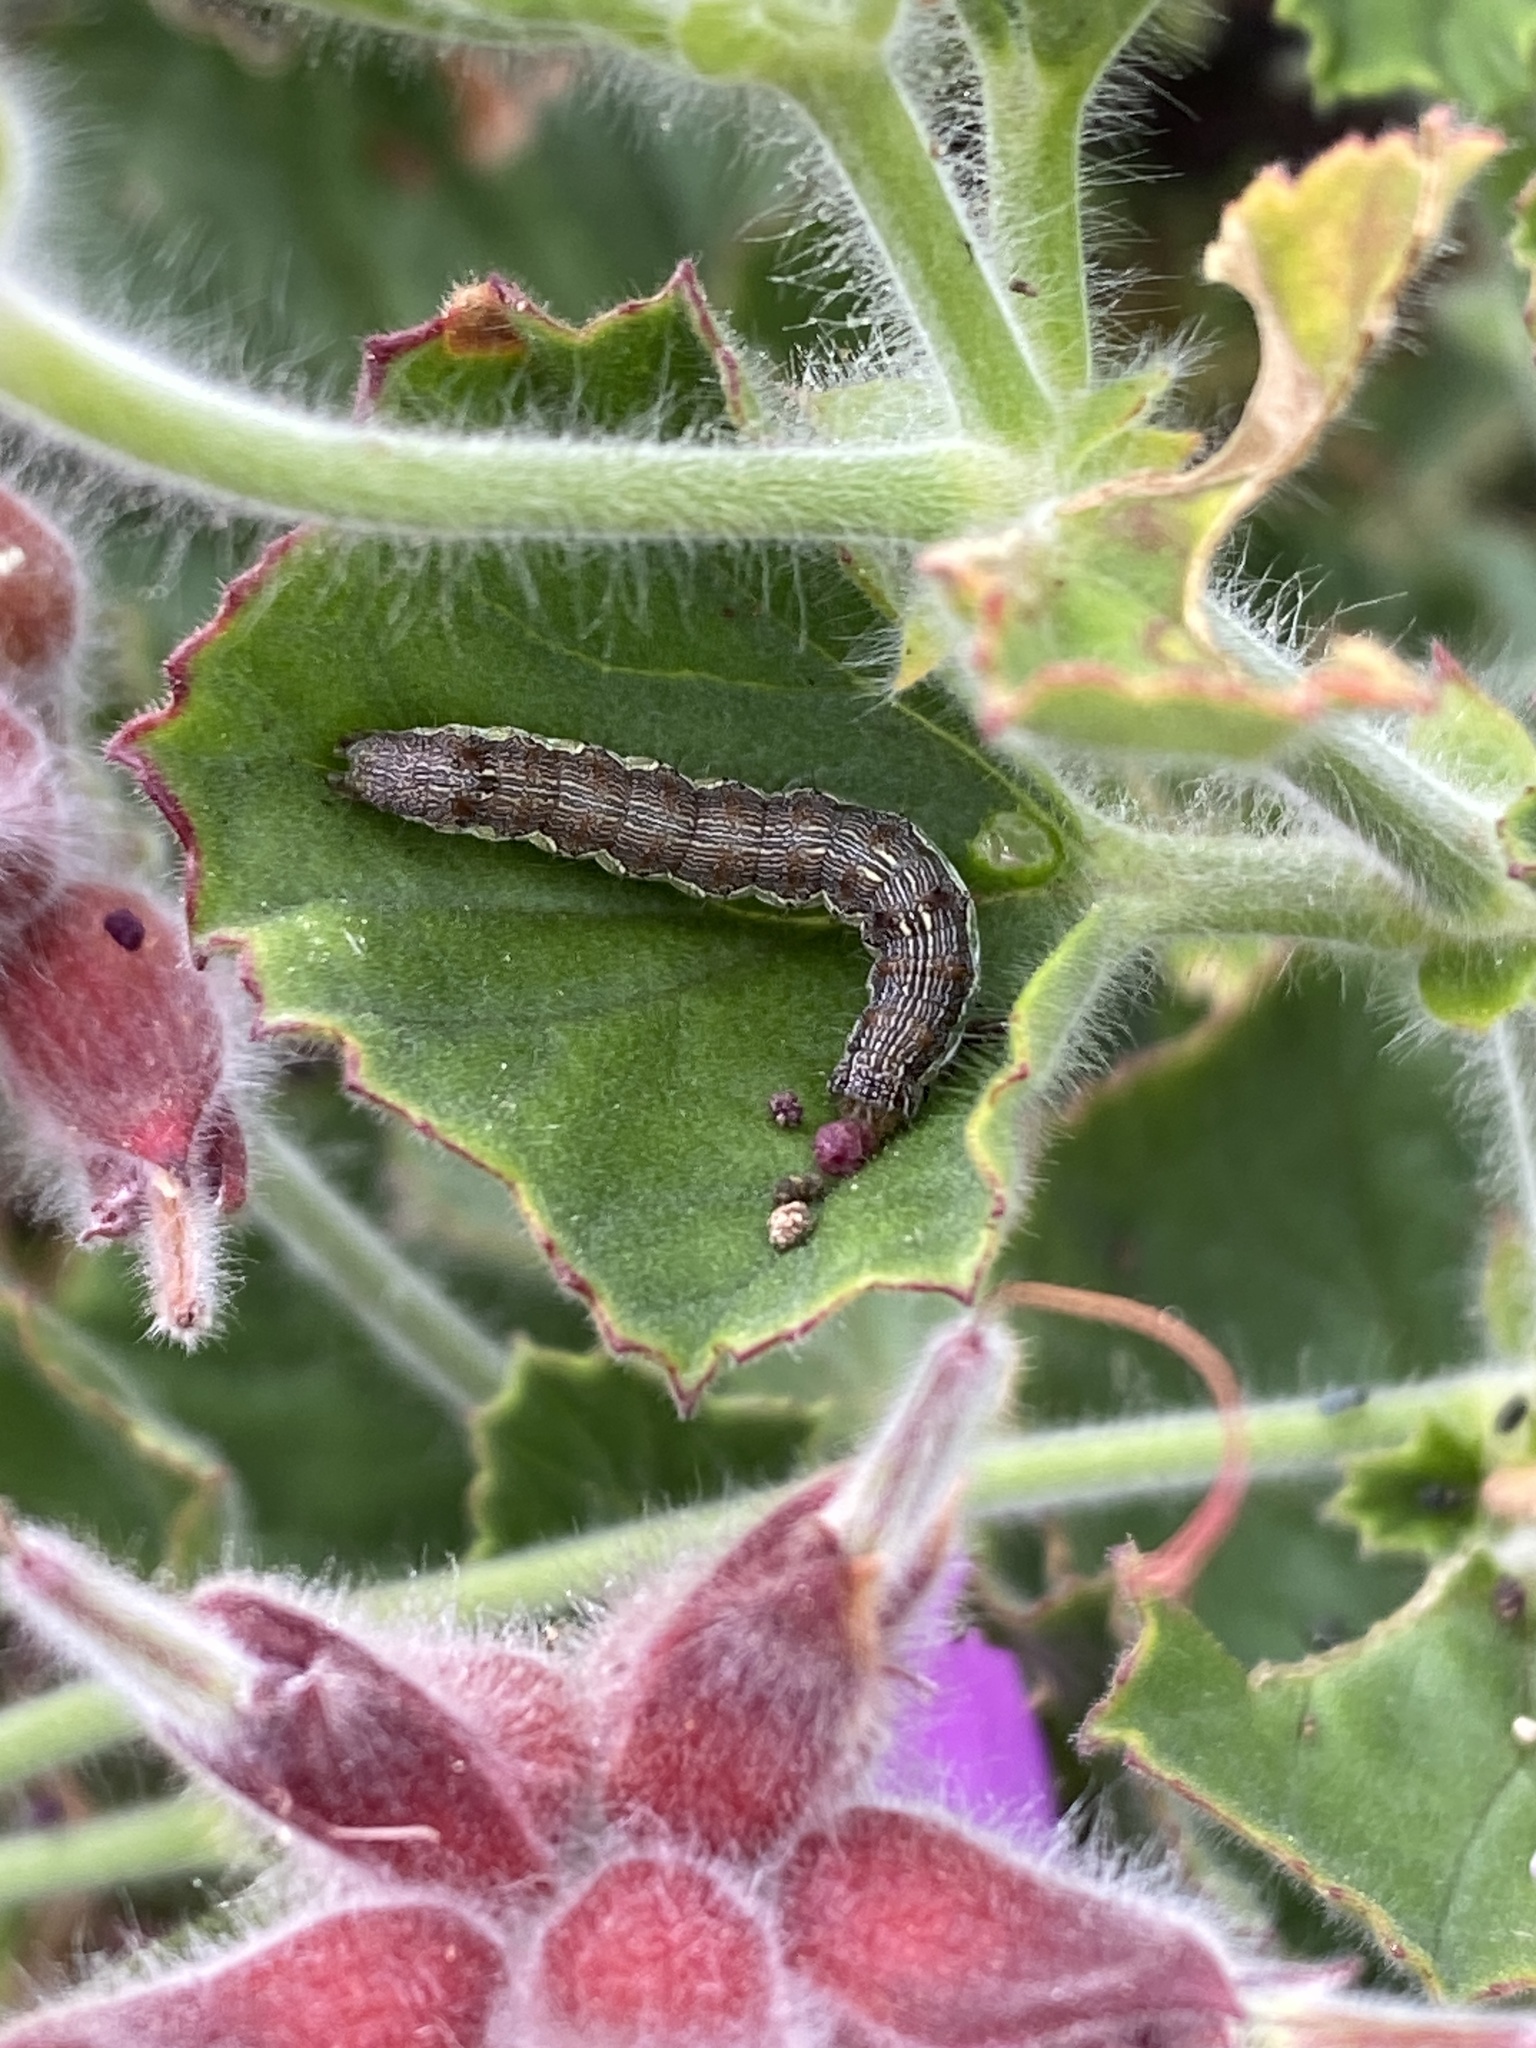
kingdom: Animalia
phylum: Arthropoda
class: Insecta
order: Lepidoptera
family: Noctuidae
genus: Helicoverpa
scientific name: Helicoverpa armigera
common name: Cotton bollworm
